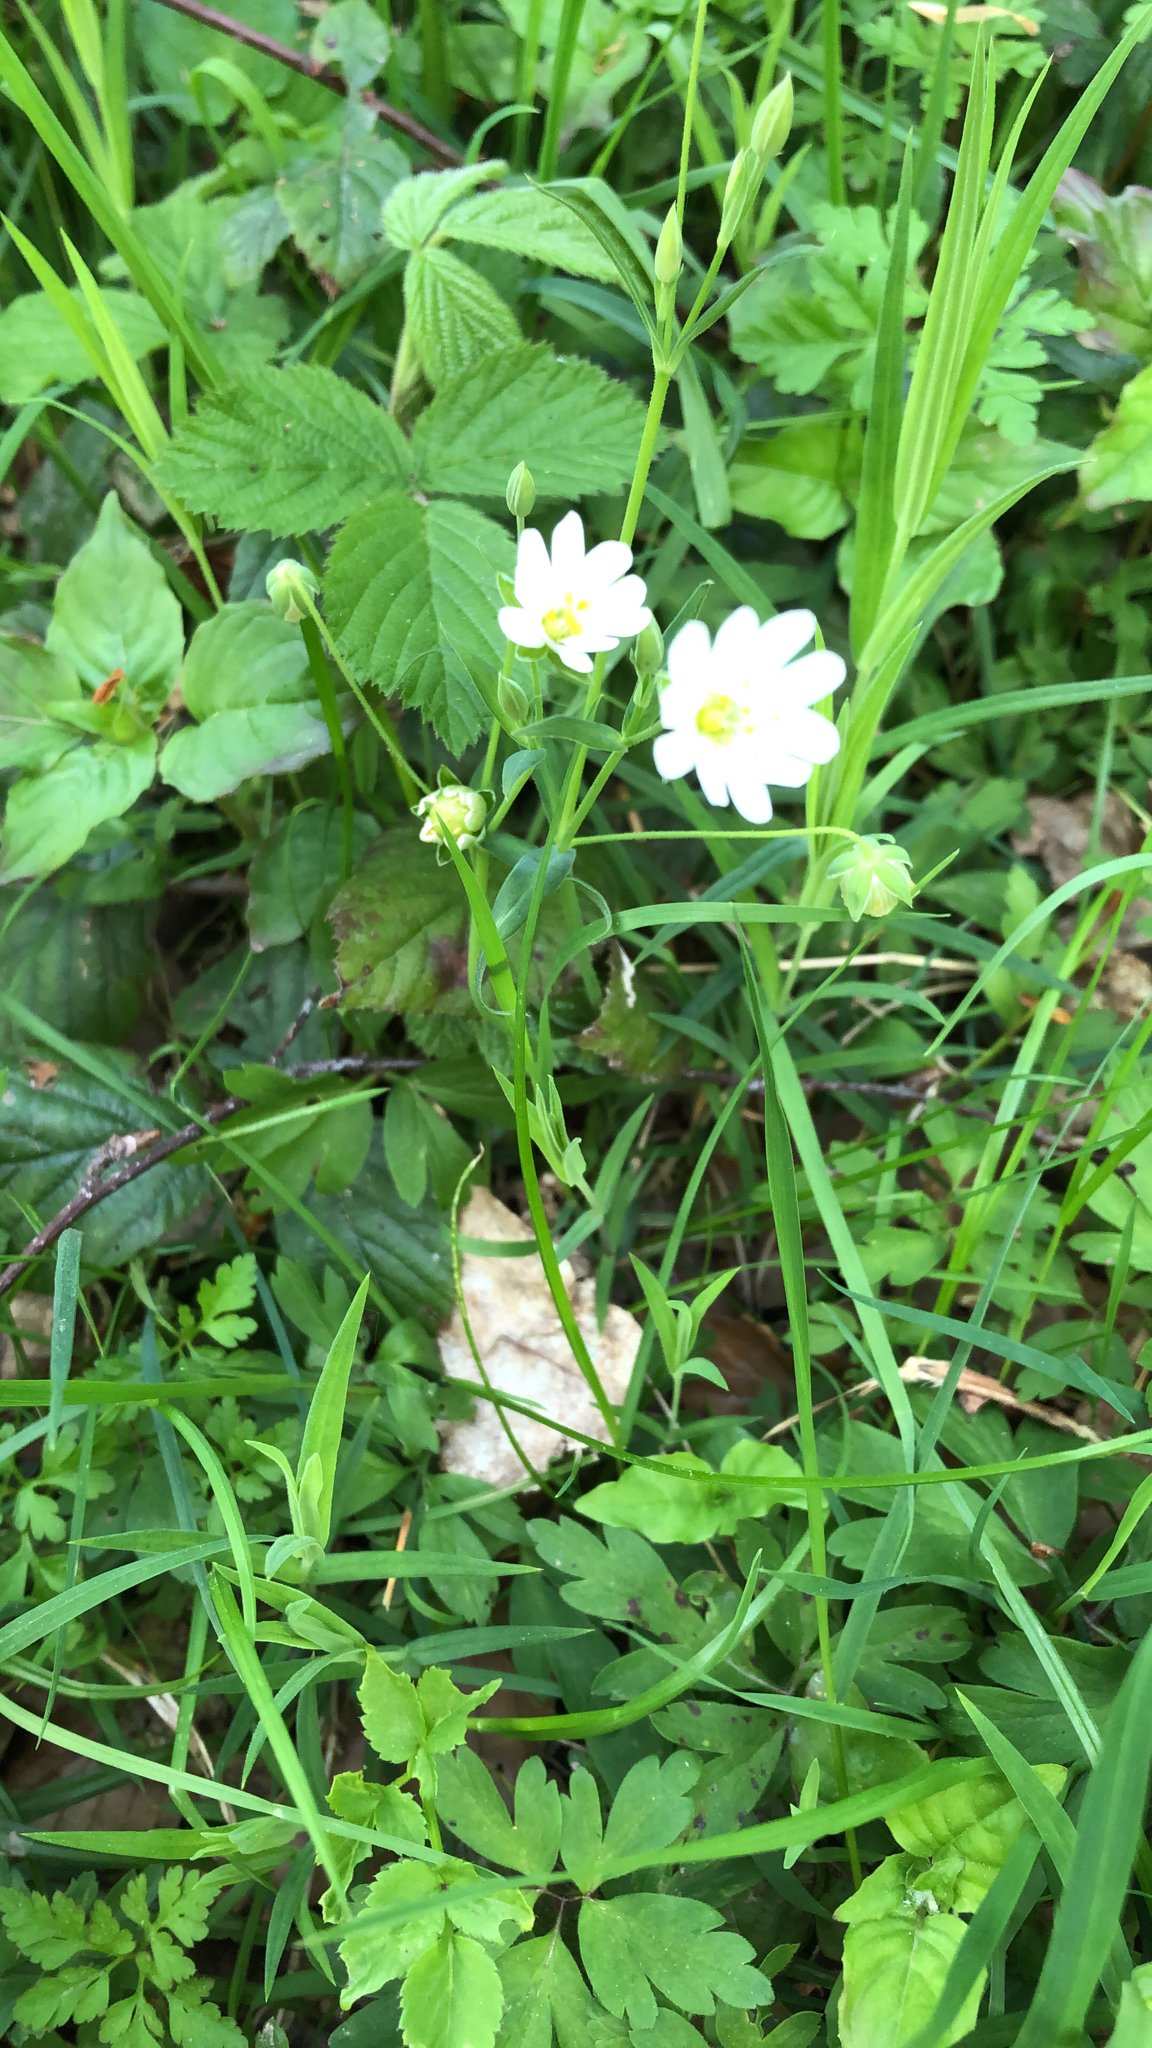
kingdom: Plantae
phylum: Tracheophyta
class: Magnoliopsida
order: Caryophyllales
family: Caryophyllaceae
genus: Rabelera
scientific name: Rabelera holostea
